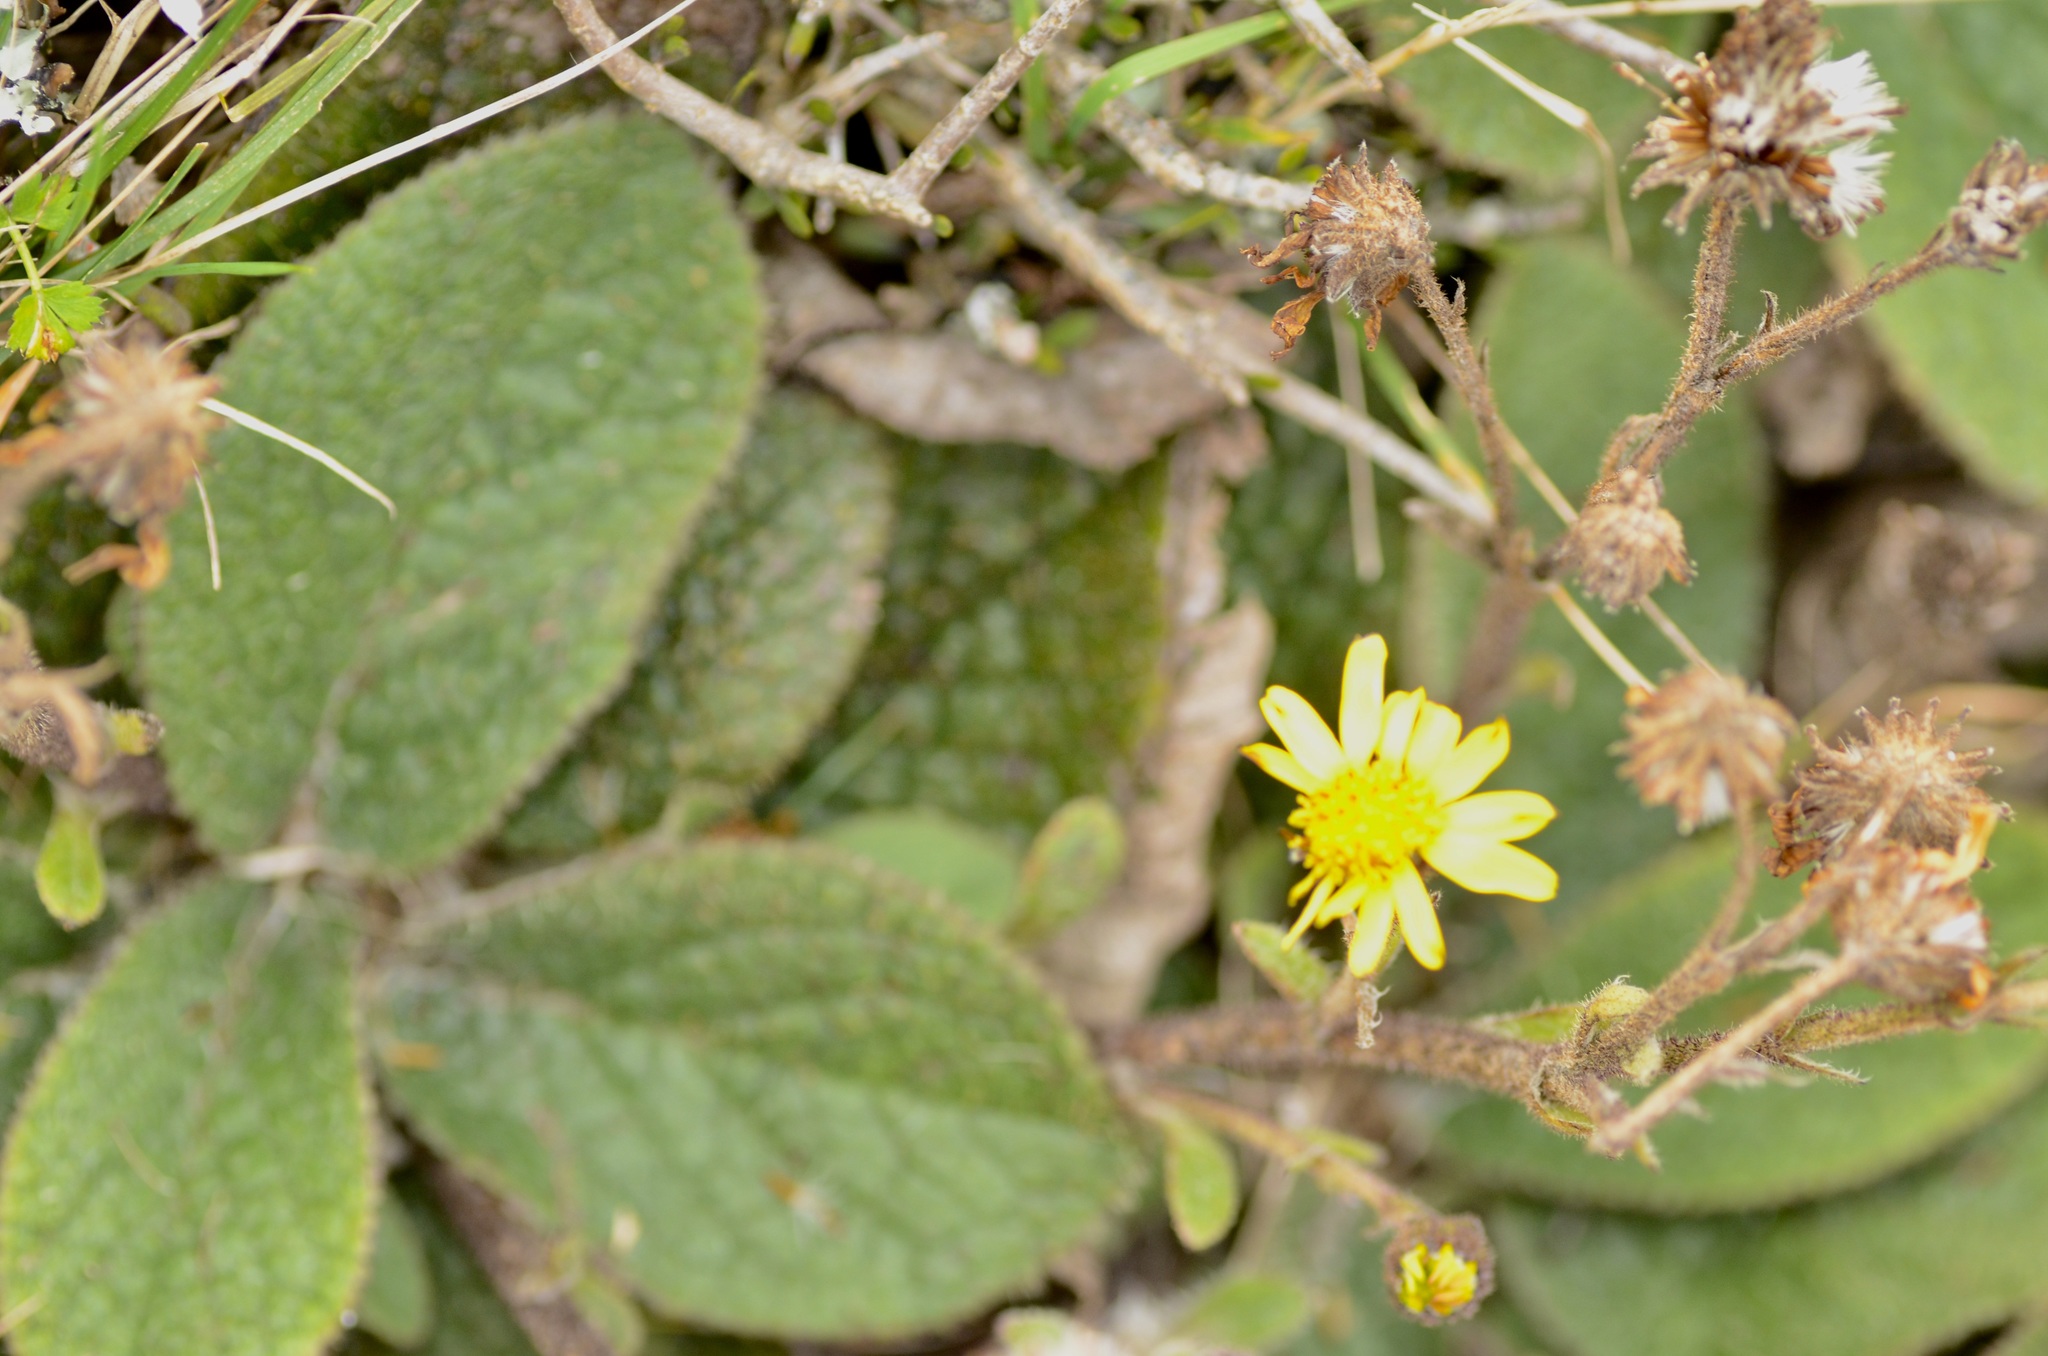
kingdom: Plantae
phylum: Tracheophyta
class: Magnoliopsida
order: Asterales
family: Asteraceae
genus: Brachyglottis
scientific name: Brachyglottis lagopus
